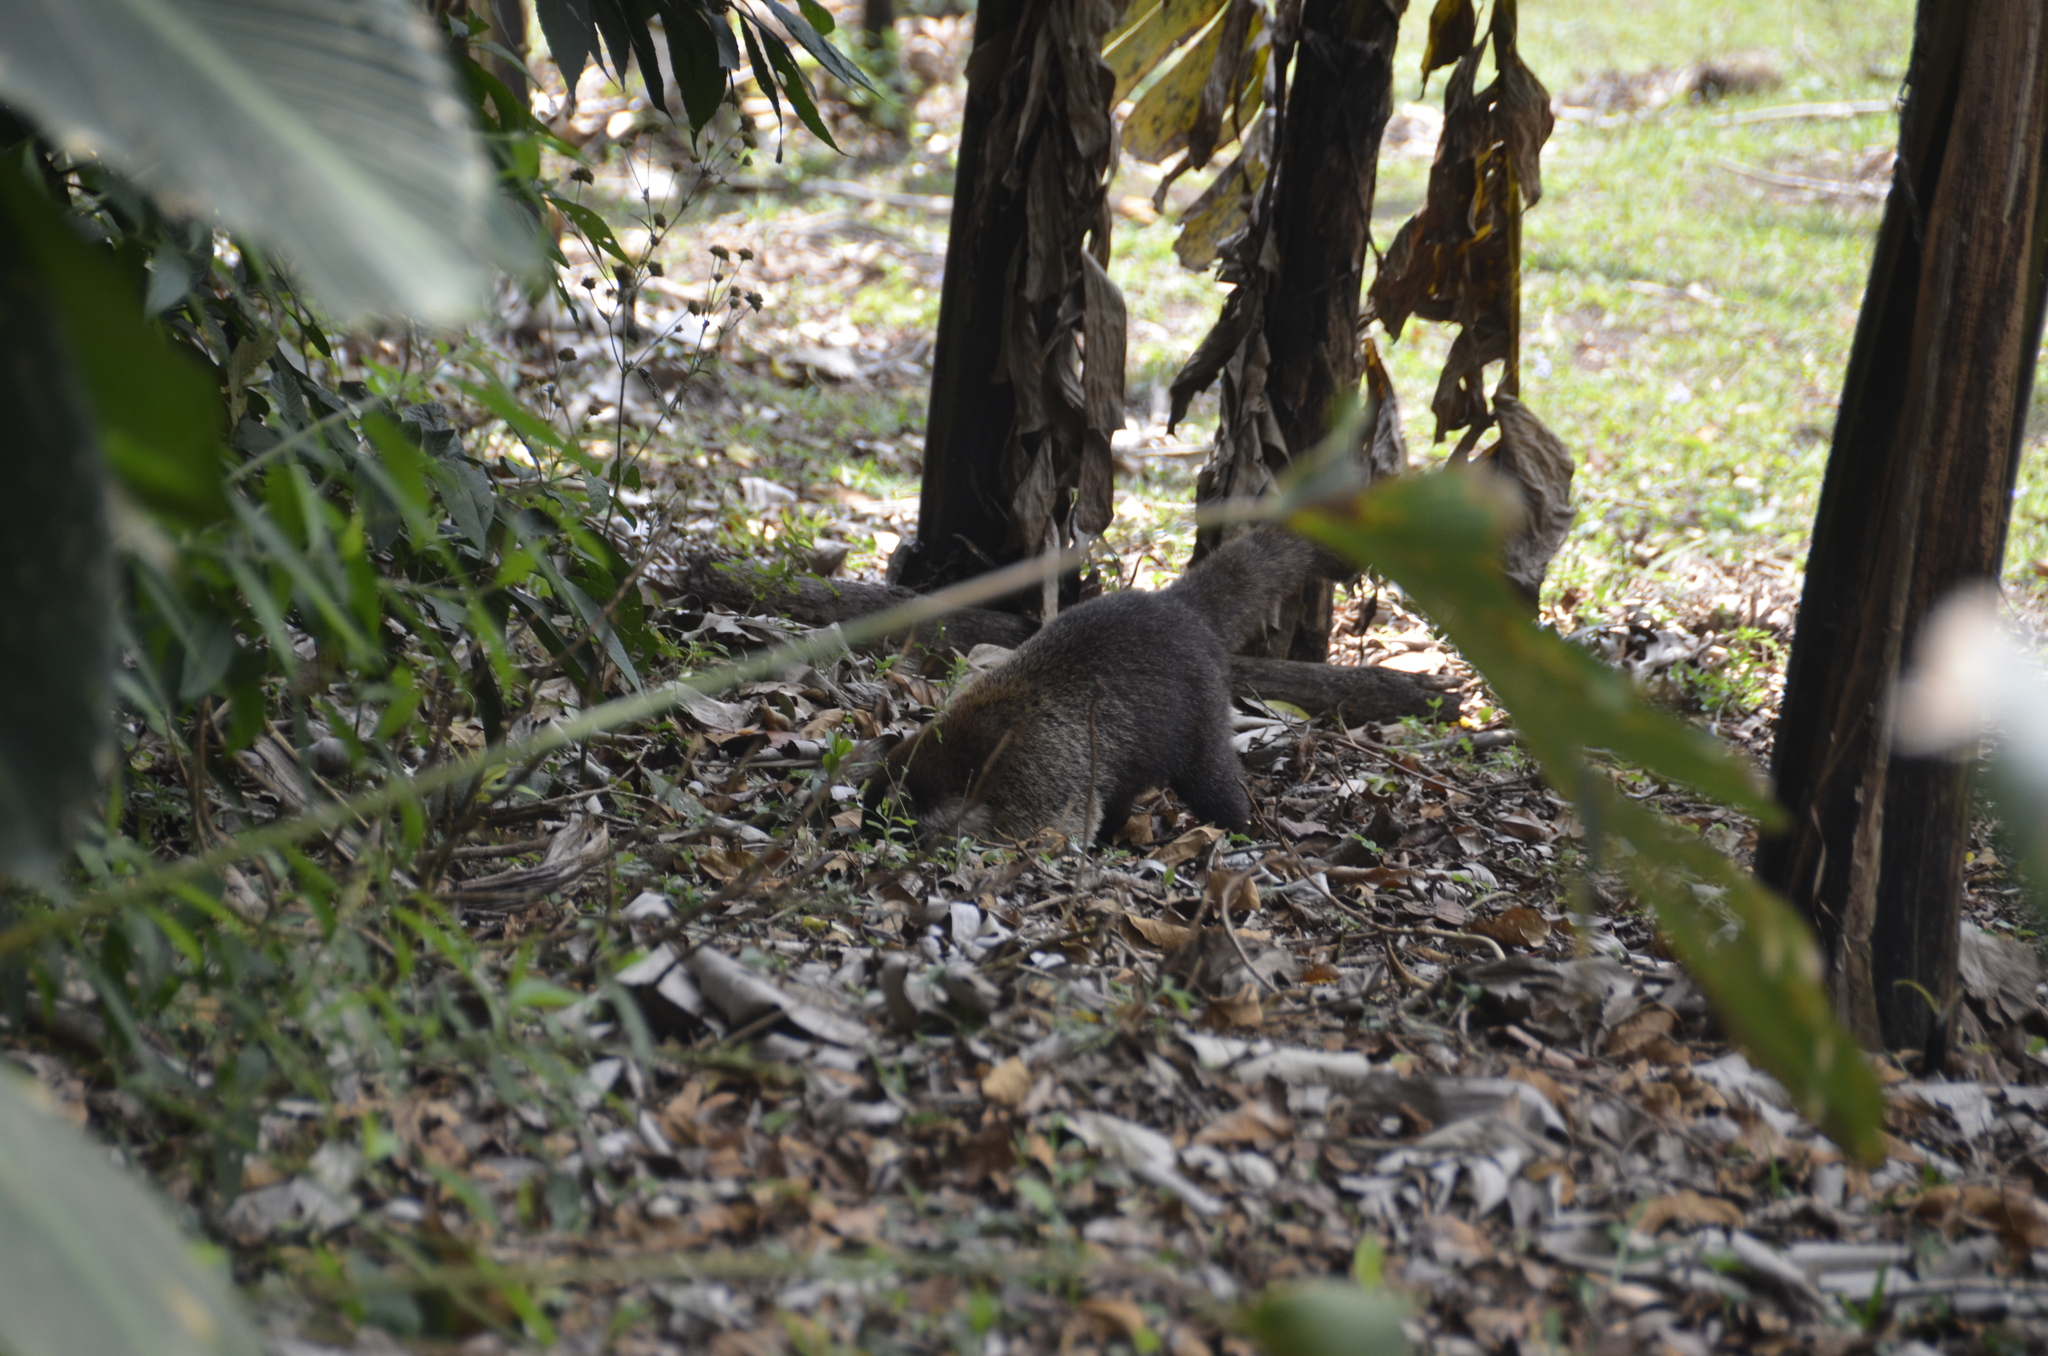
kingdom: Animalia
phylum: Chordata
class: Mammalia
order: Carnivora
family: Procyonidae
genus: Nasua
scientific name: Nasua narica
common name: White-nosed coati
